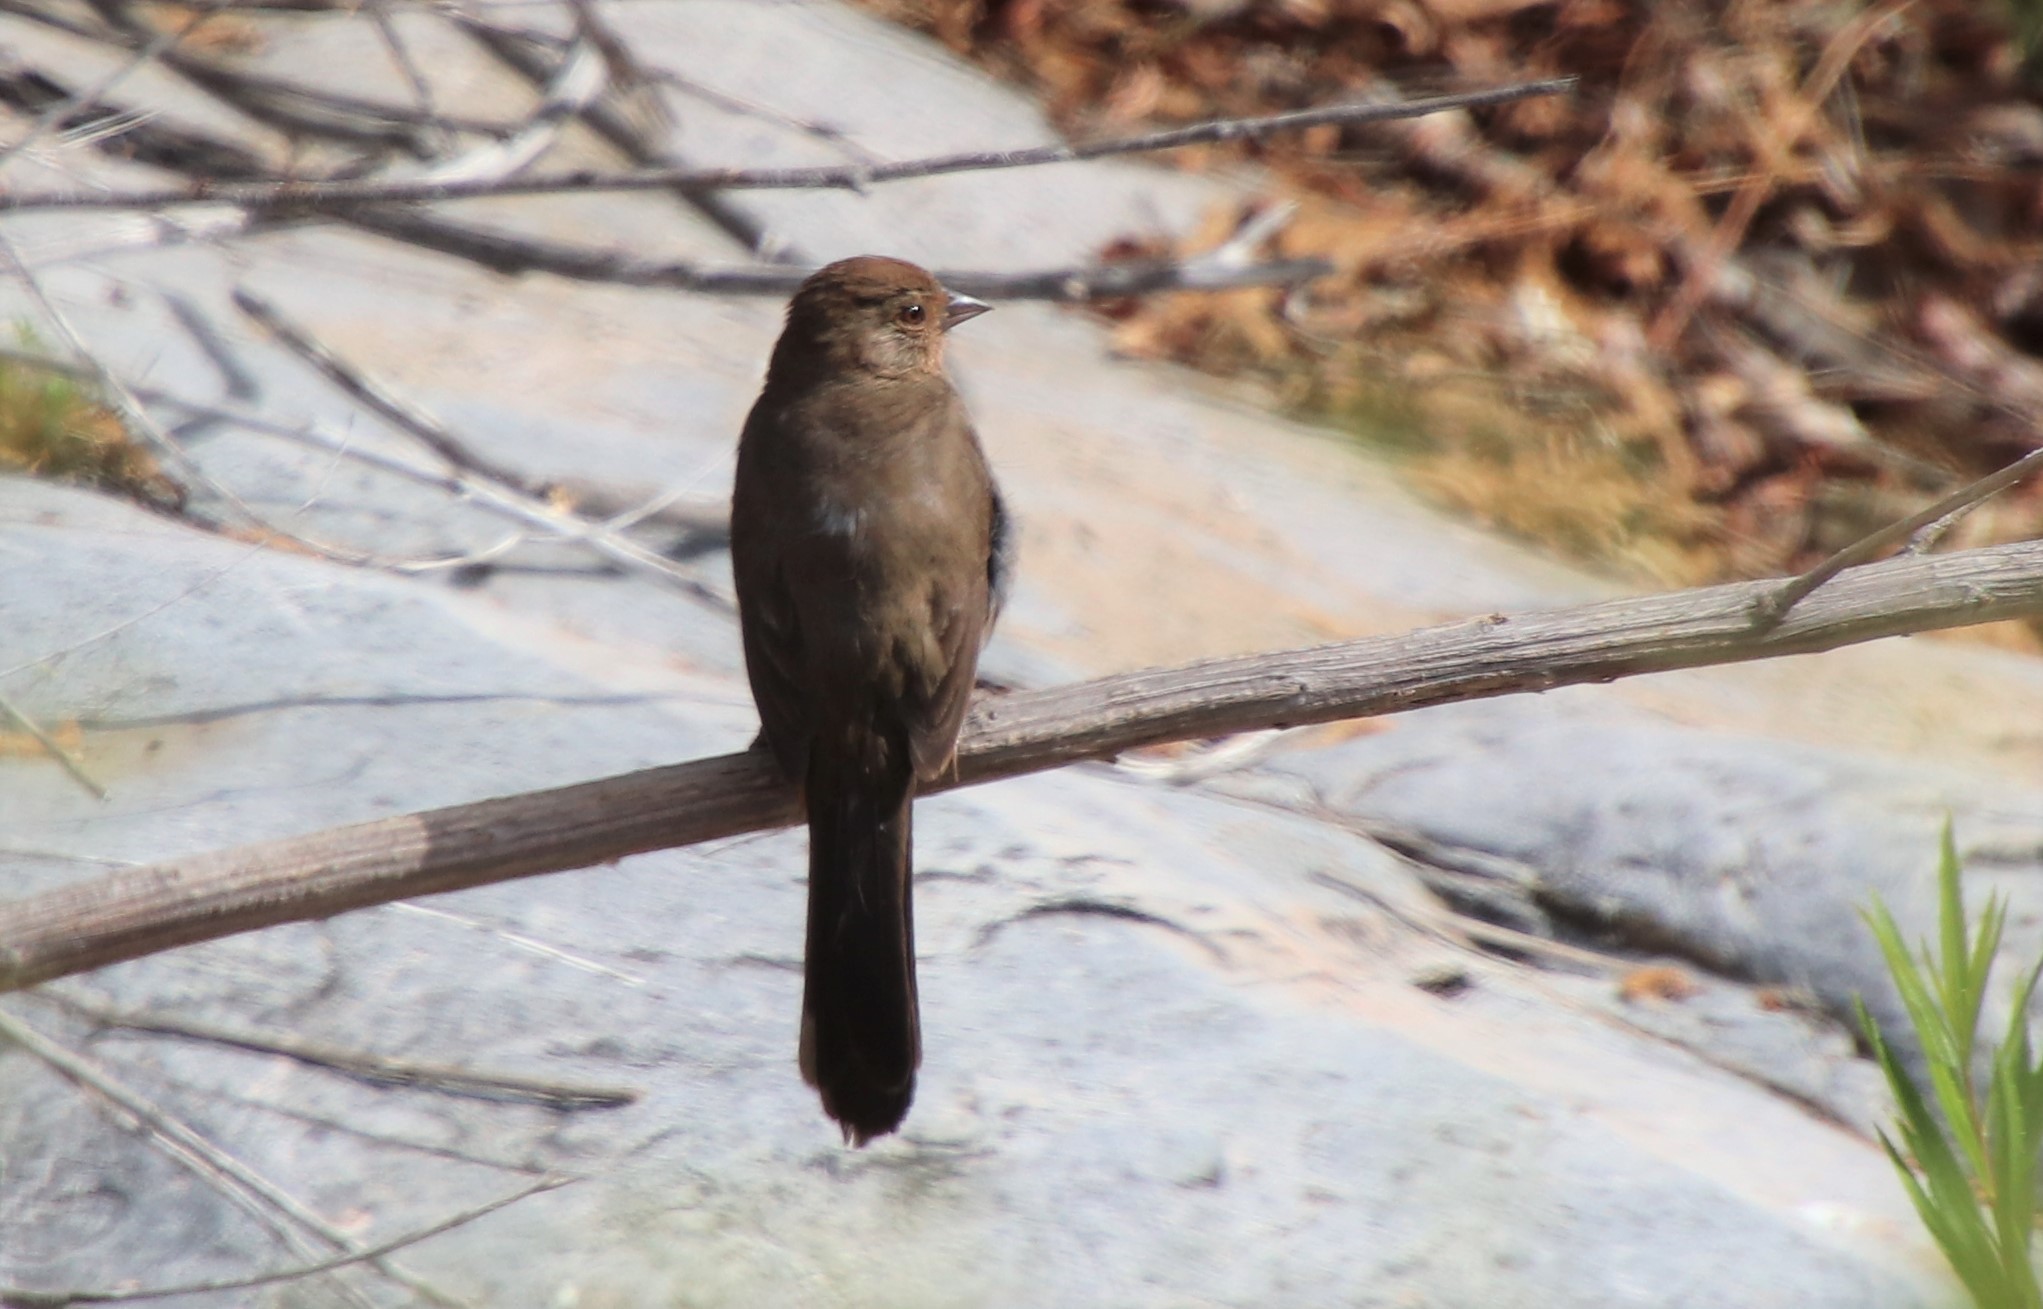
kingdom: Animalia
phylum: Chordata
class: Aves
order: Passeriformes
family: Passerellidae
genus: Melozone
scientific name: Melozone crissalis
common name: California towhee
